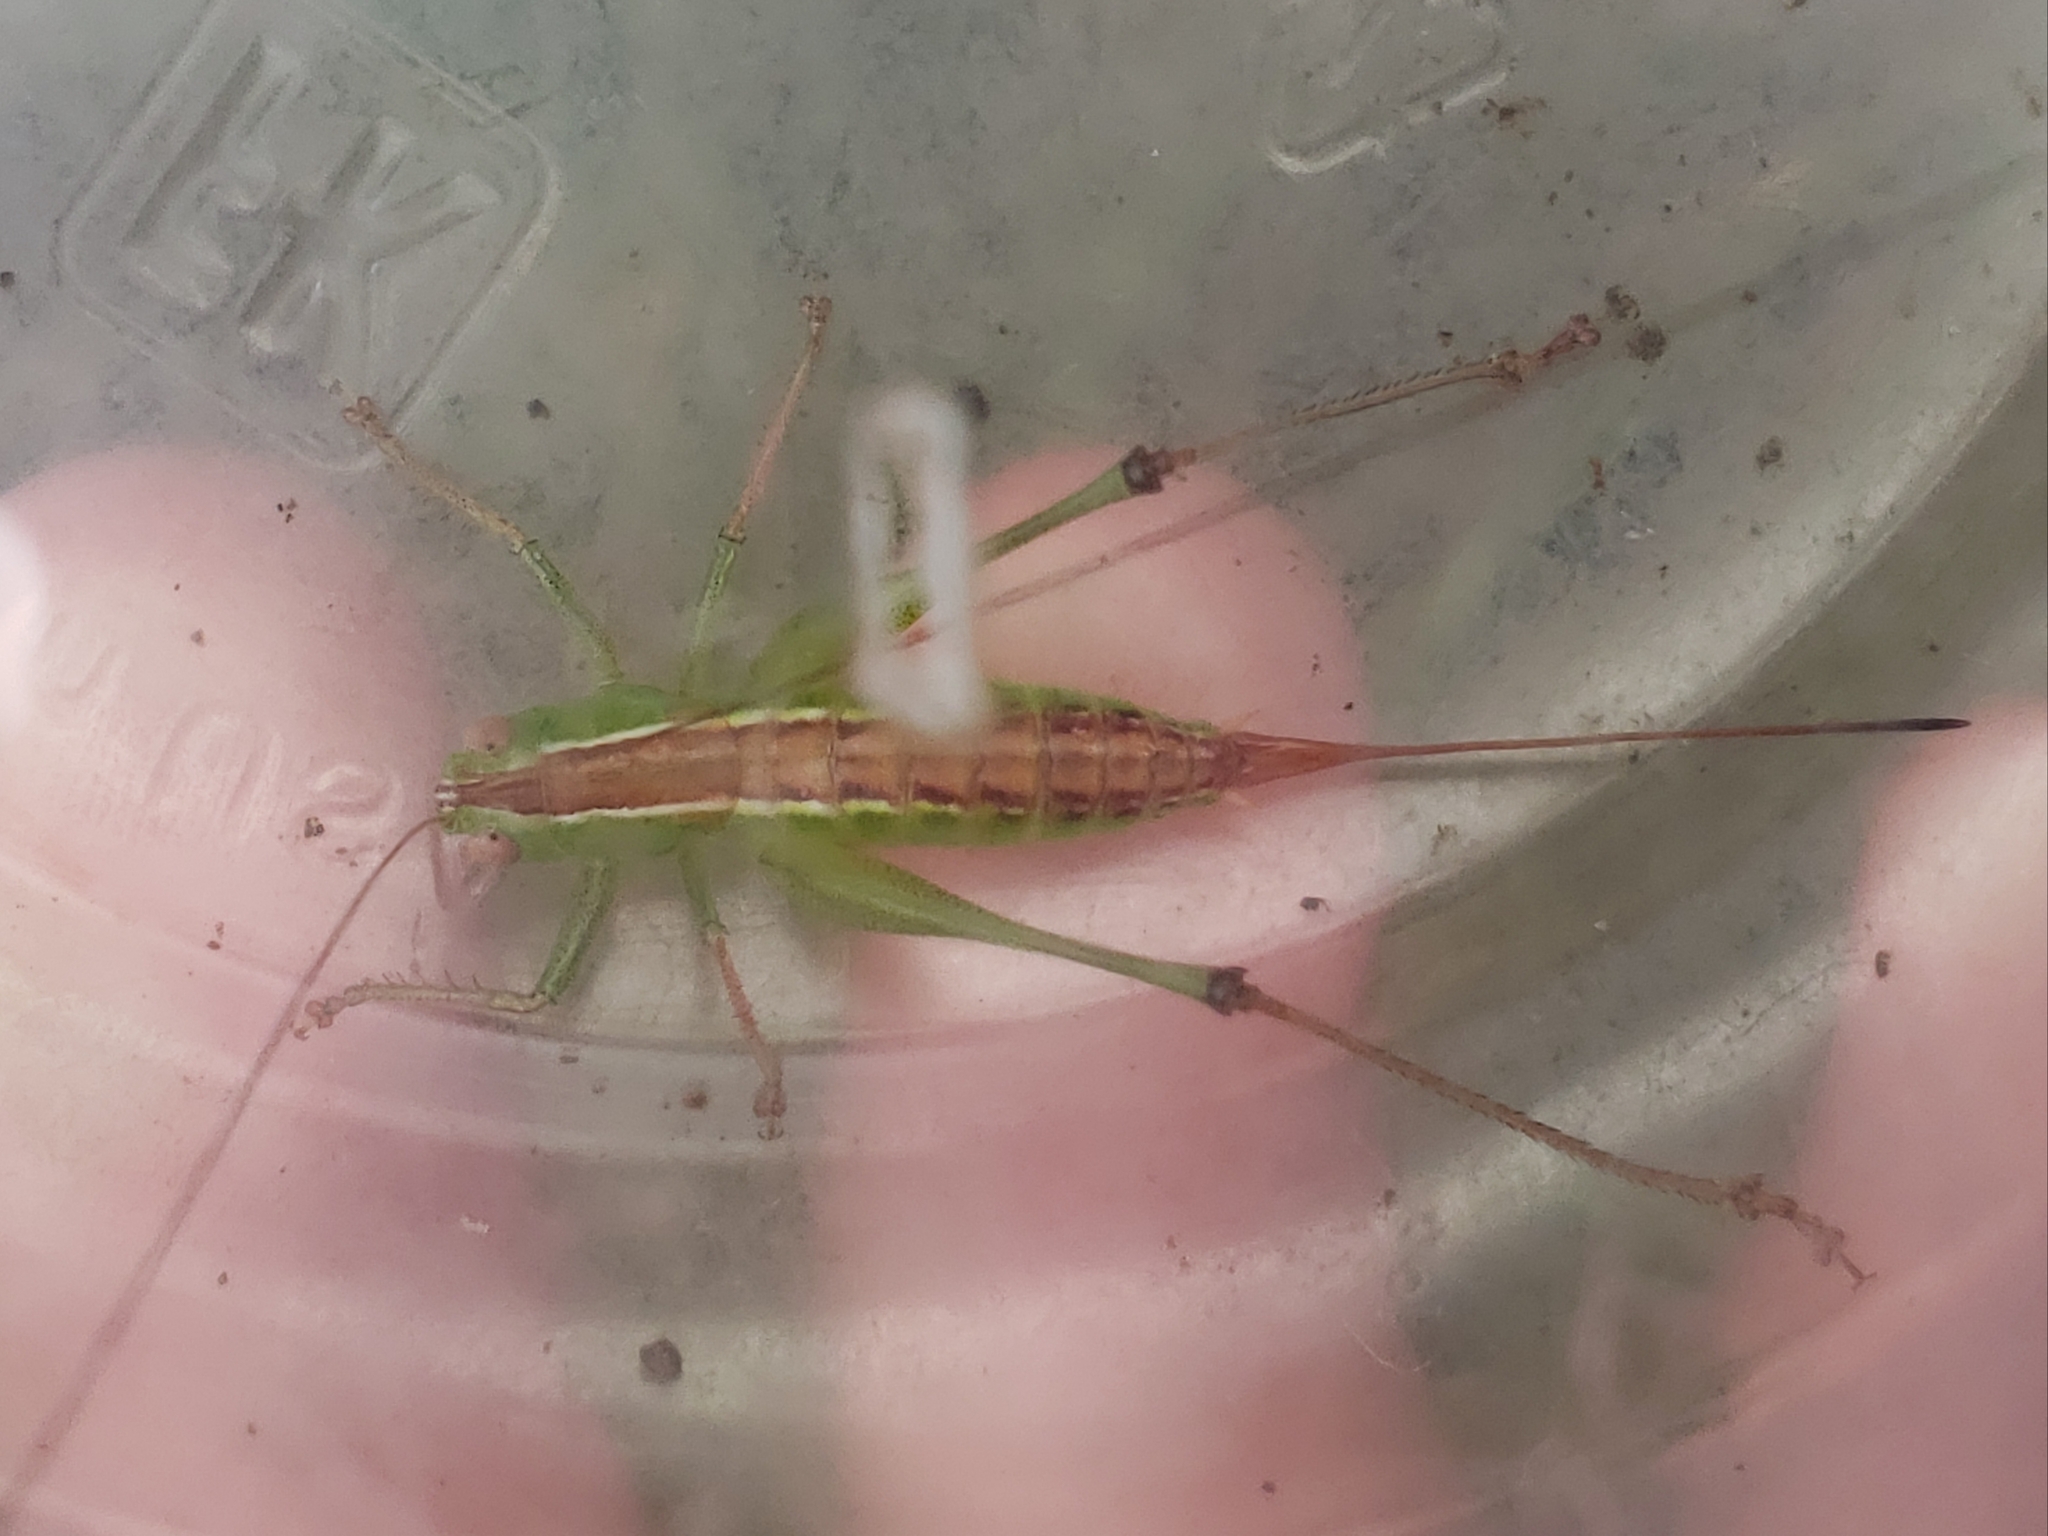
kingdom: Animalia
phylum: Arthropoda
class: Insecta
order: Orthoptera
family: Tettigoniidae
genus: Odontoxiphidium
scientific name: Odontoxiphidium apterum
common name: Wingless meadow katydid
